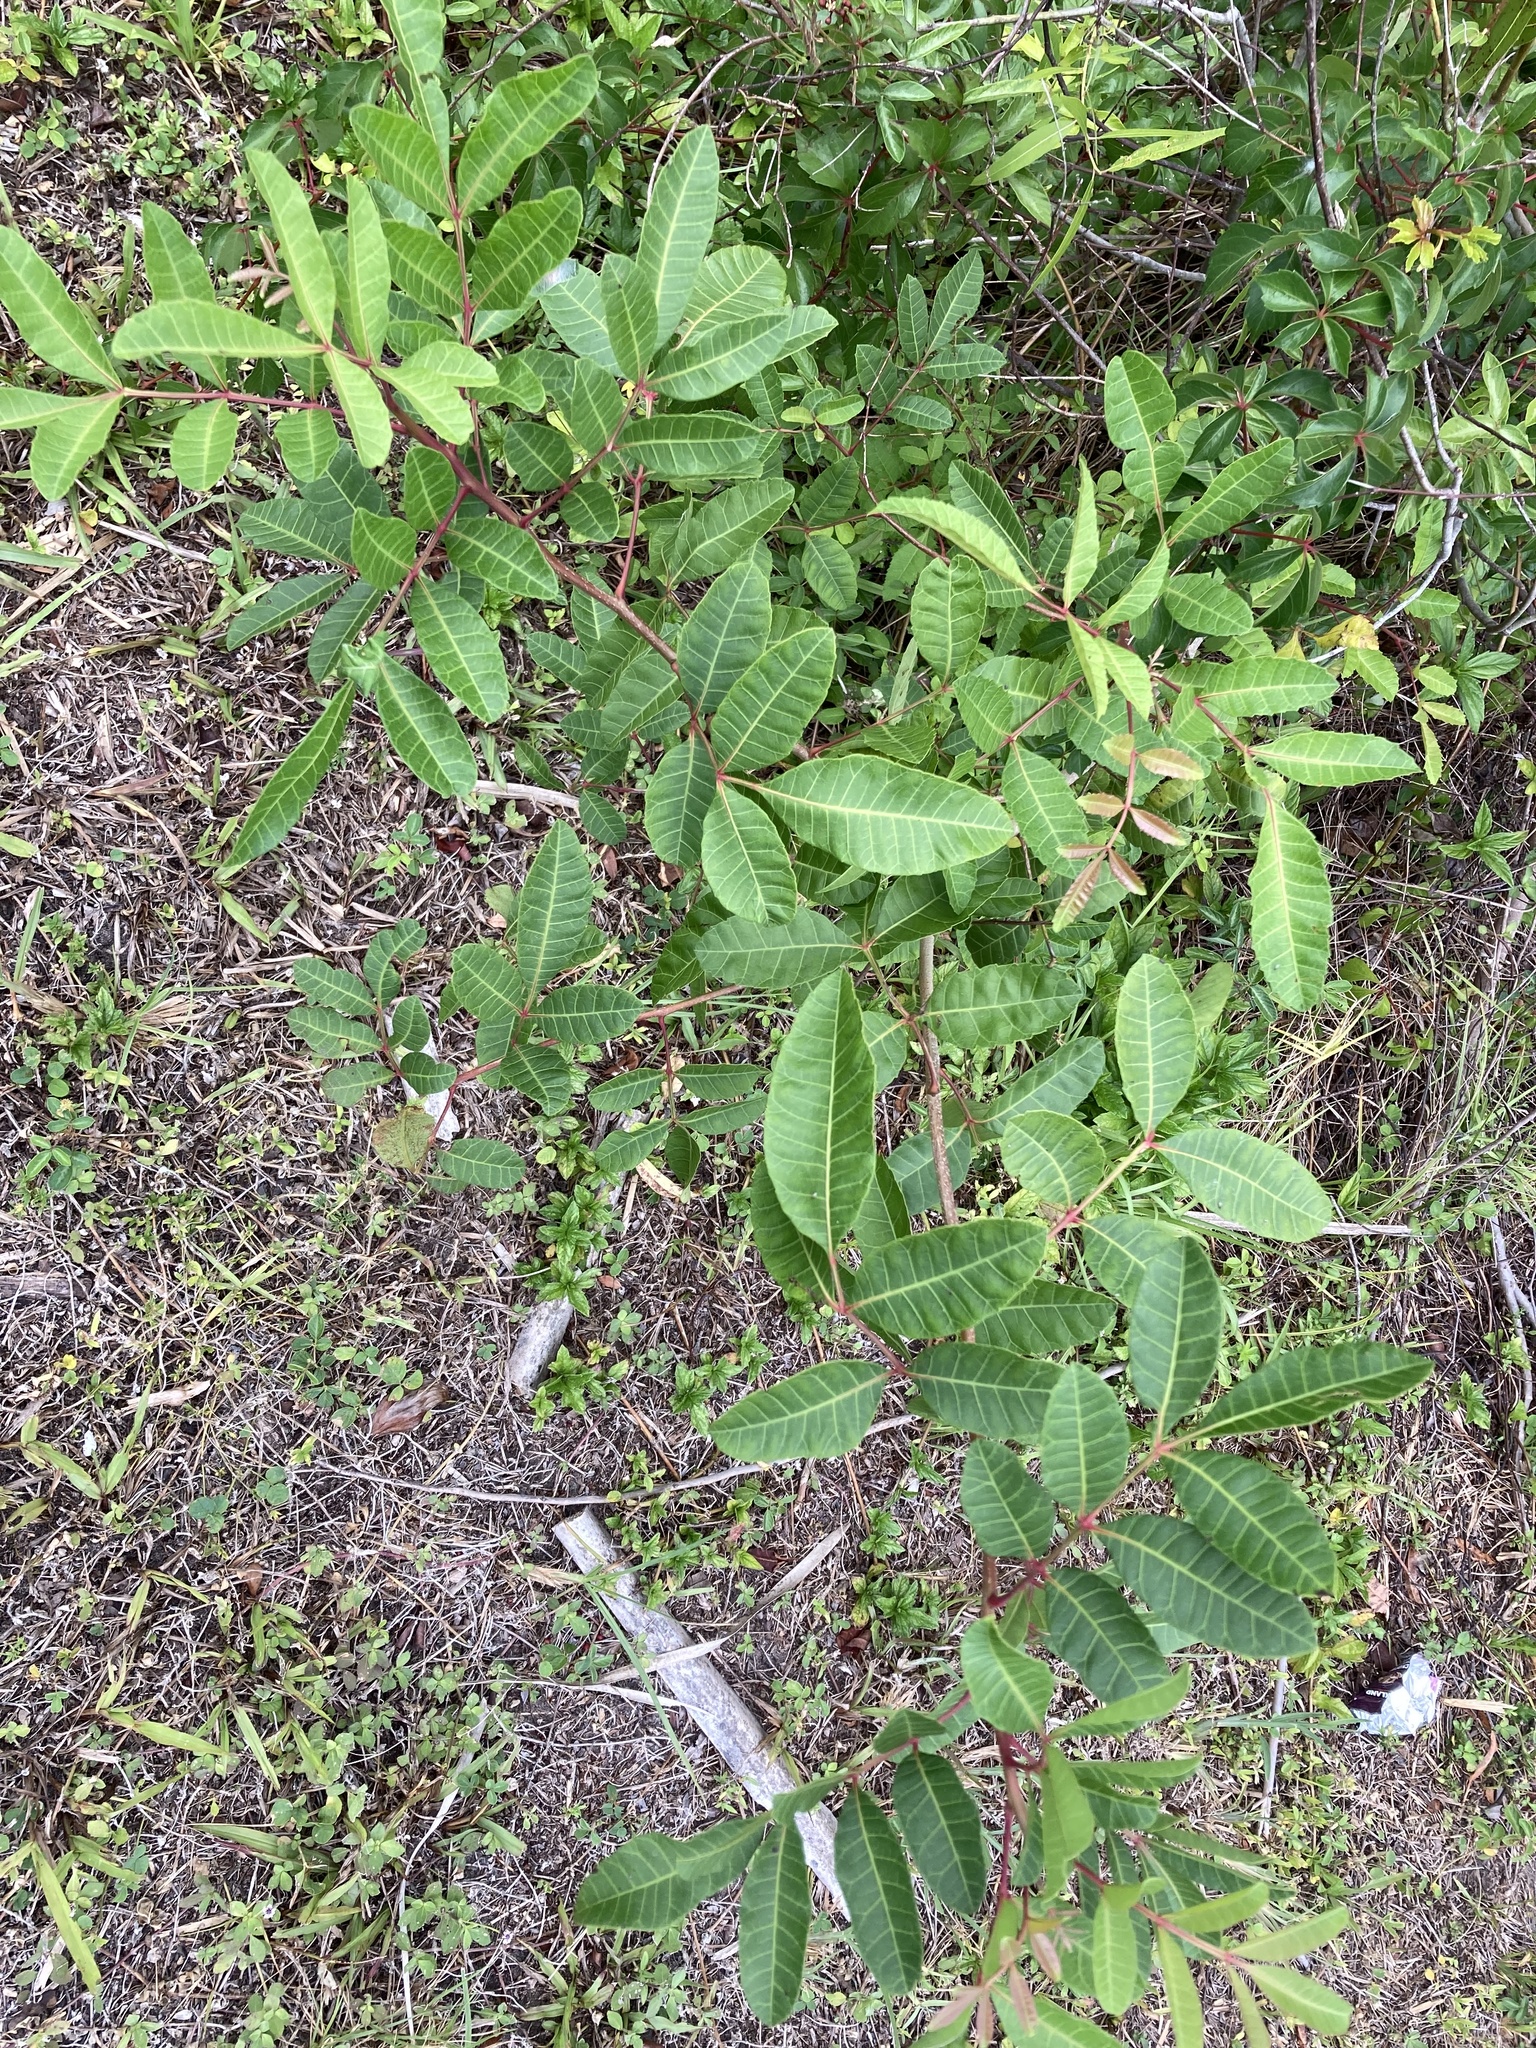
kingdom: Plantae
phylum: Tracheophyta
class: Magnoliopsida
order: Sapindales
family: Anacardiaceae
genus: Schinus
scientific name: Schinus terebinthifolia
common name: Brazilian peppertree
